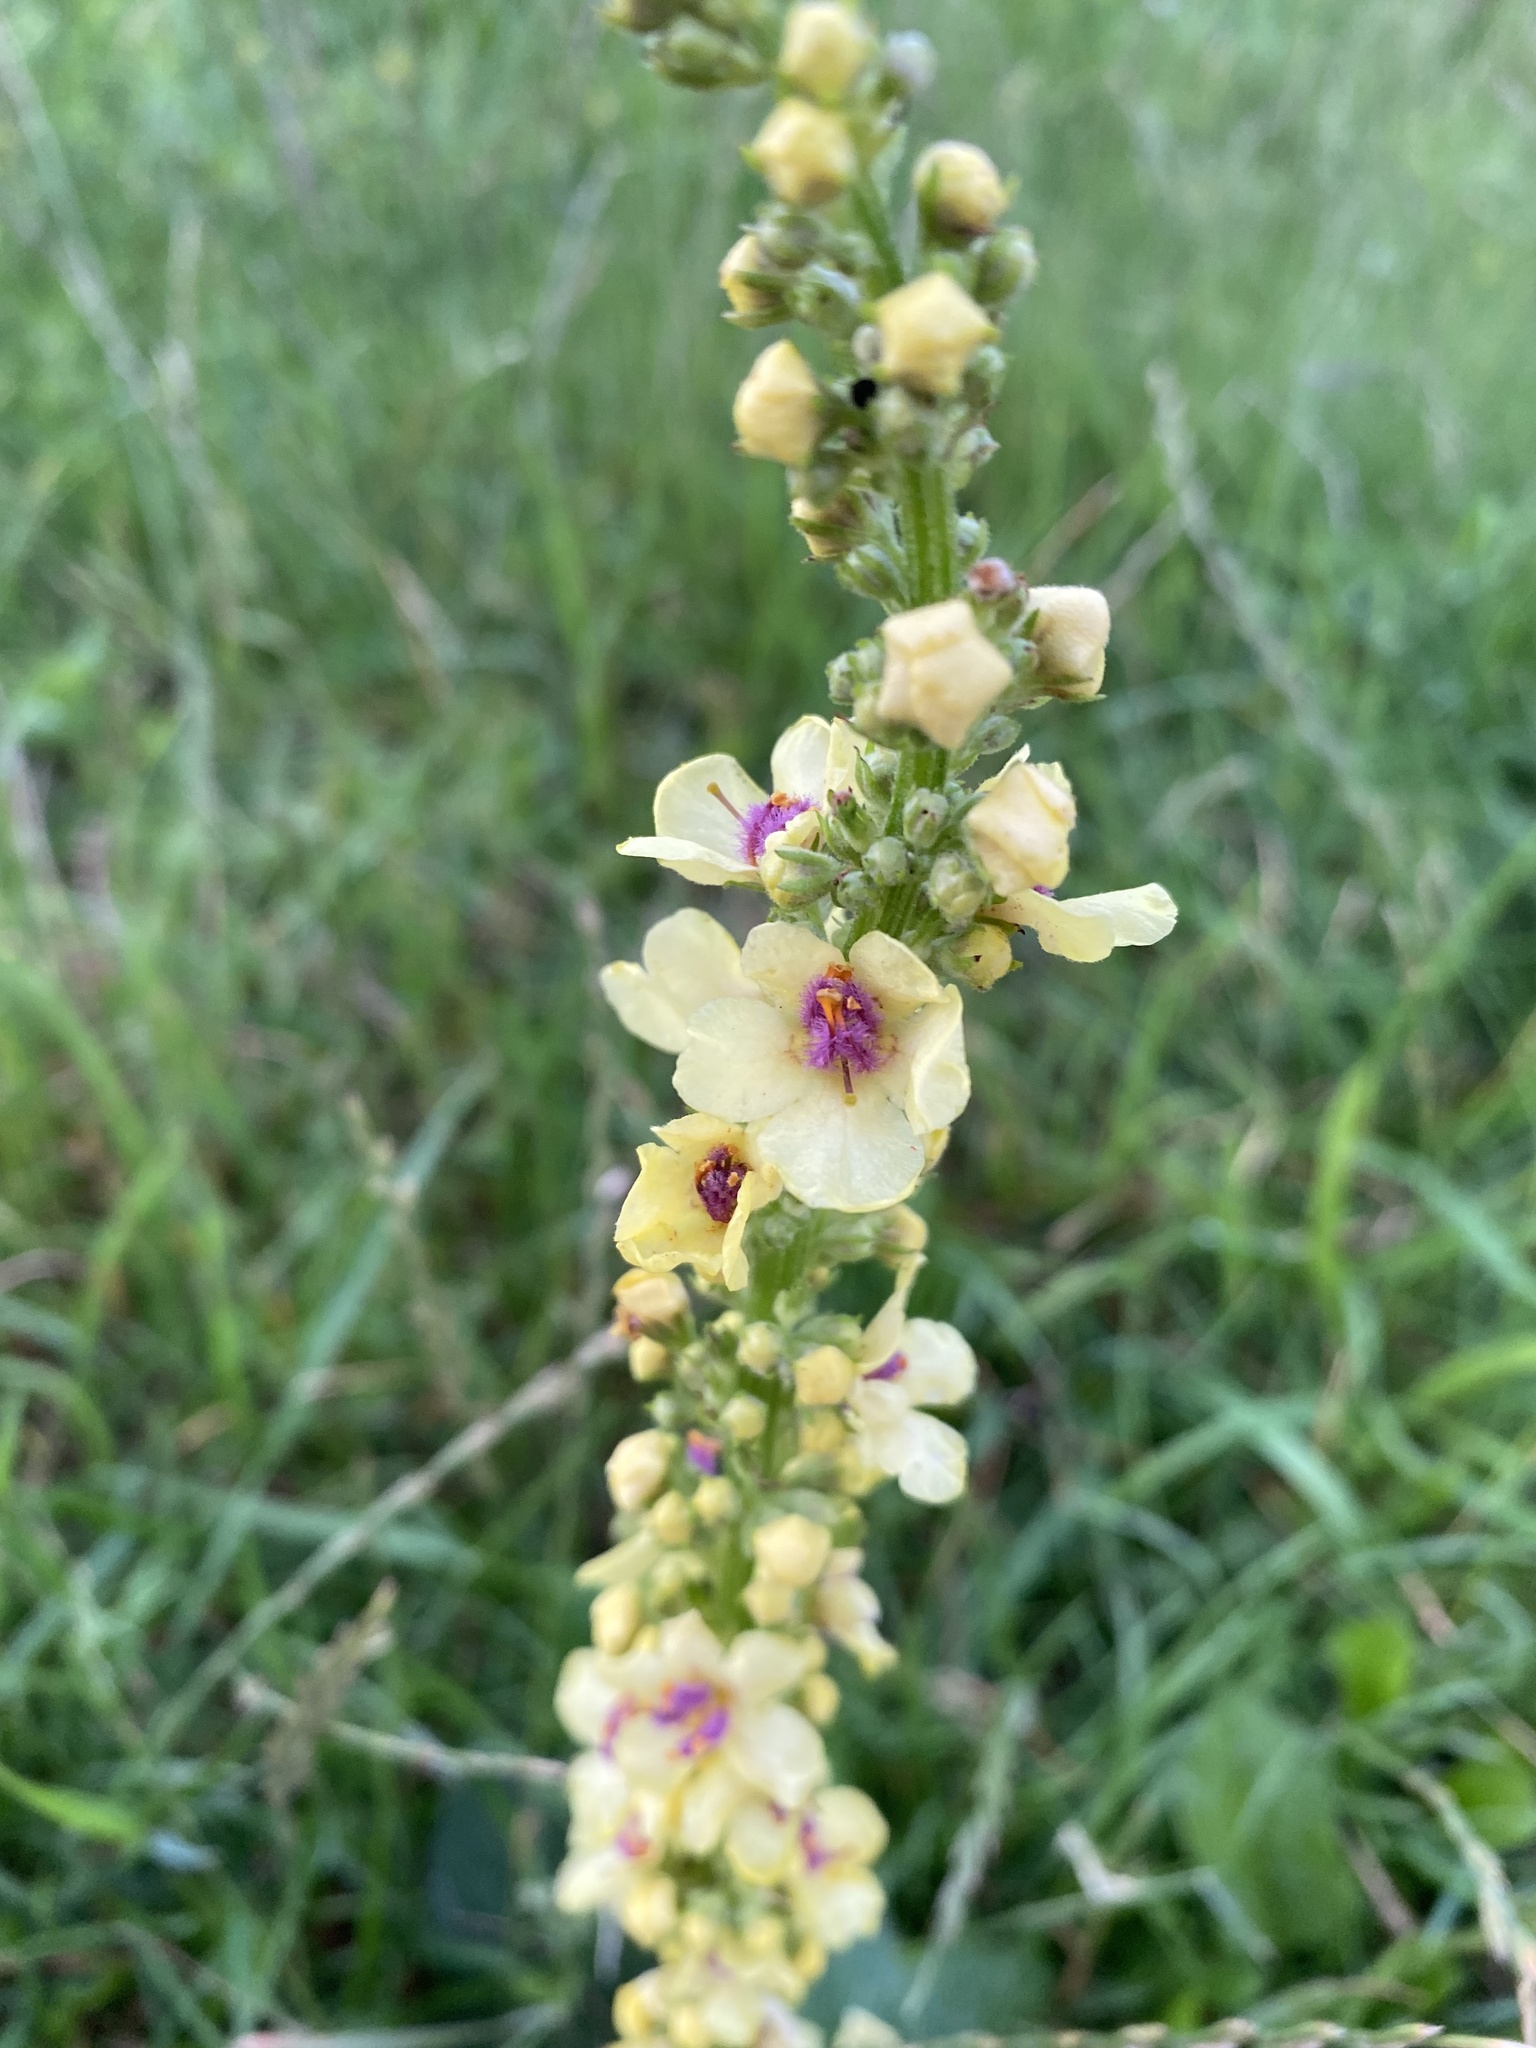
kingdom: Plantae
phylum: Tracheophyta
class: Magnoliopsida
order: Lamiales
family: Scrophulariaceae
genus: Verbascum
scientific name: Verbascum nigrum
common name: Dark mullein
